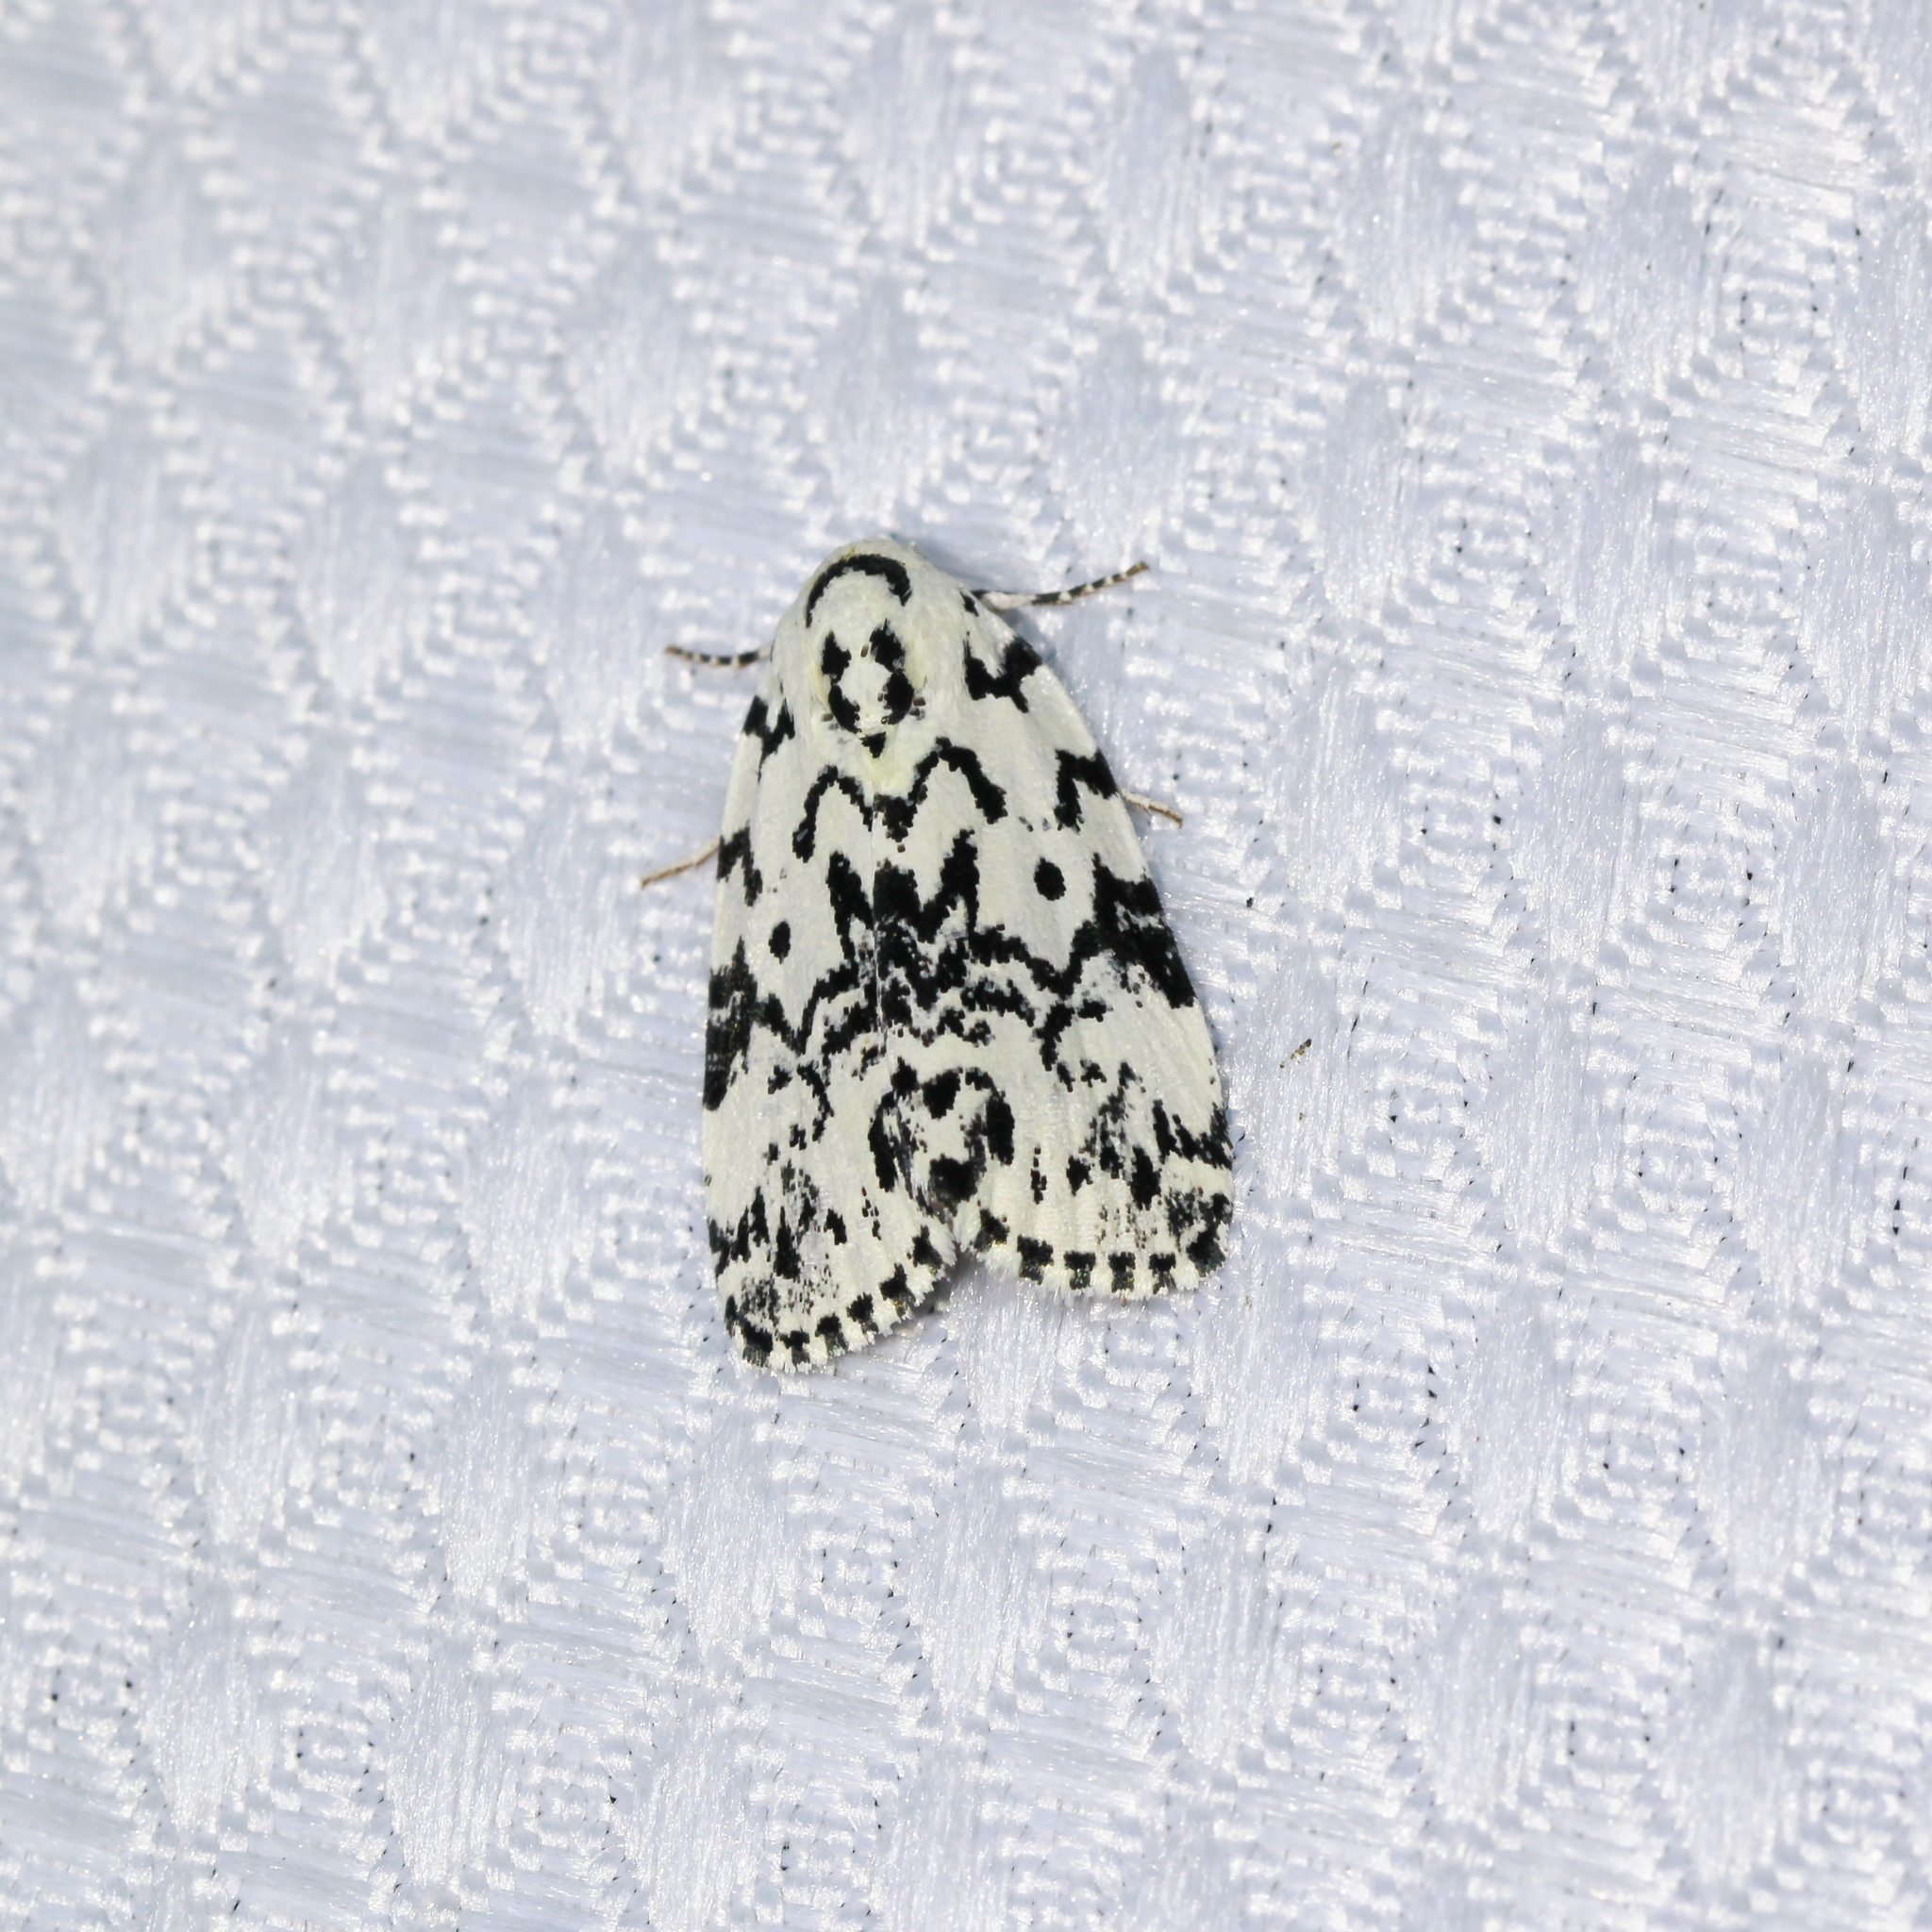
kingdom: Animalia
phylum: Arthropoda
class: Insecta
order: Lepidoptera
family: Noctuidae
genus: Polygrammate
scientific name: Polygrammate hebraeicum
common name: Hebrew moth
